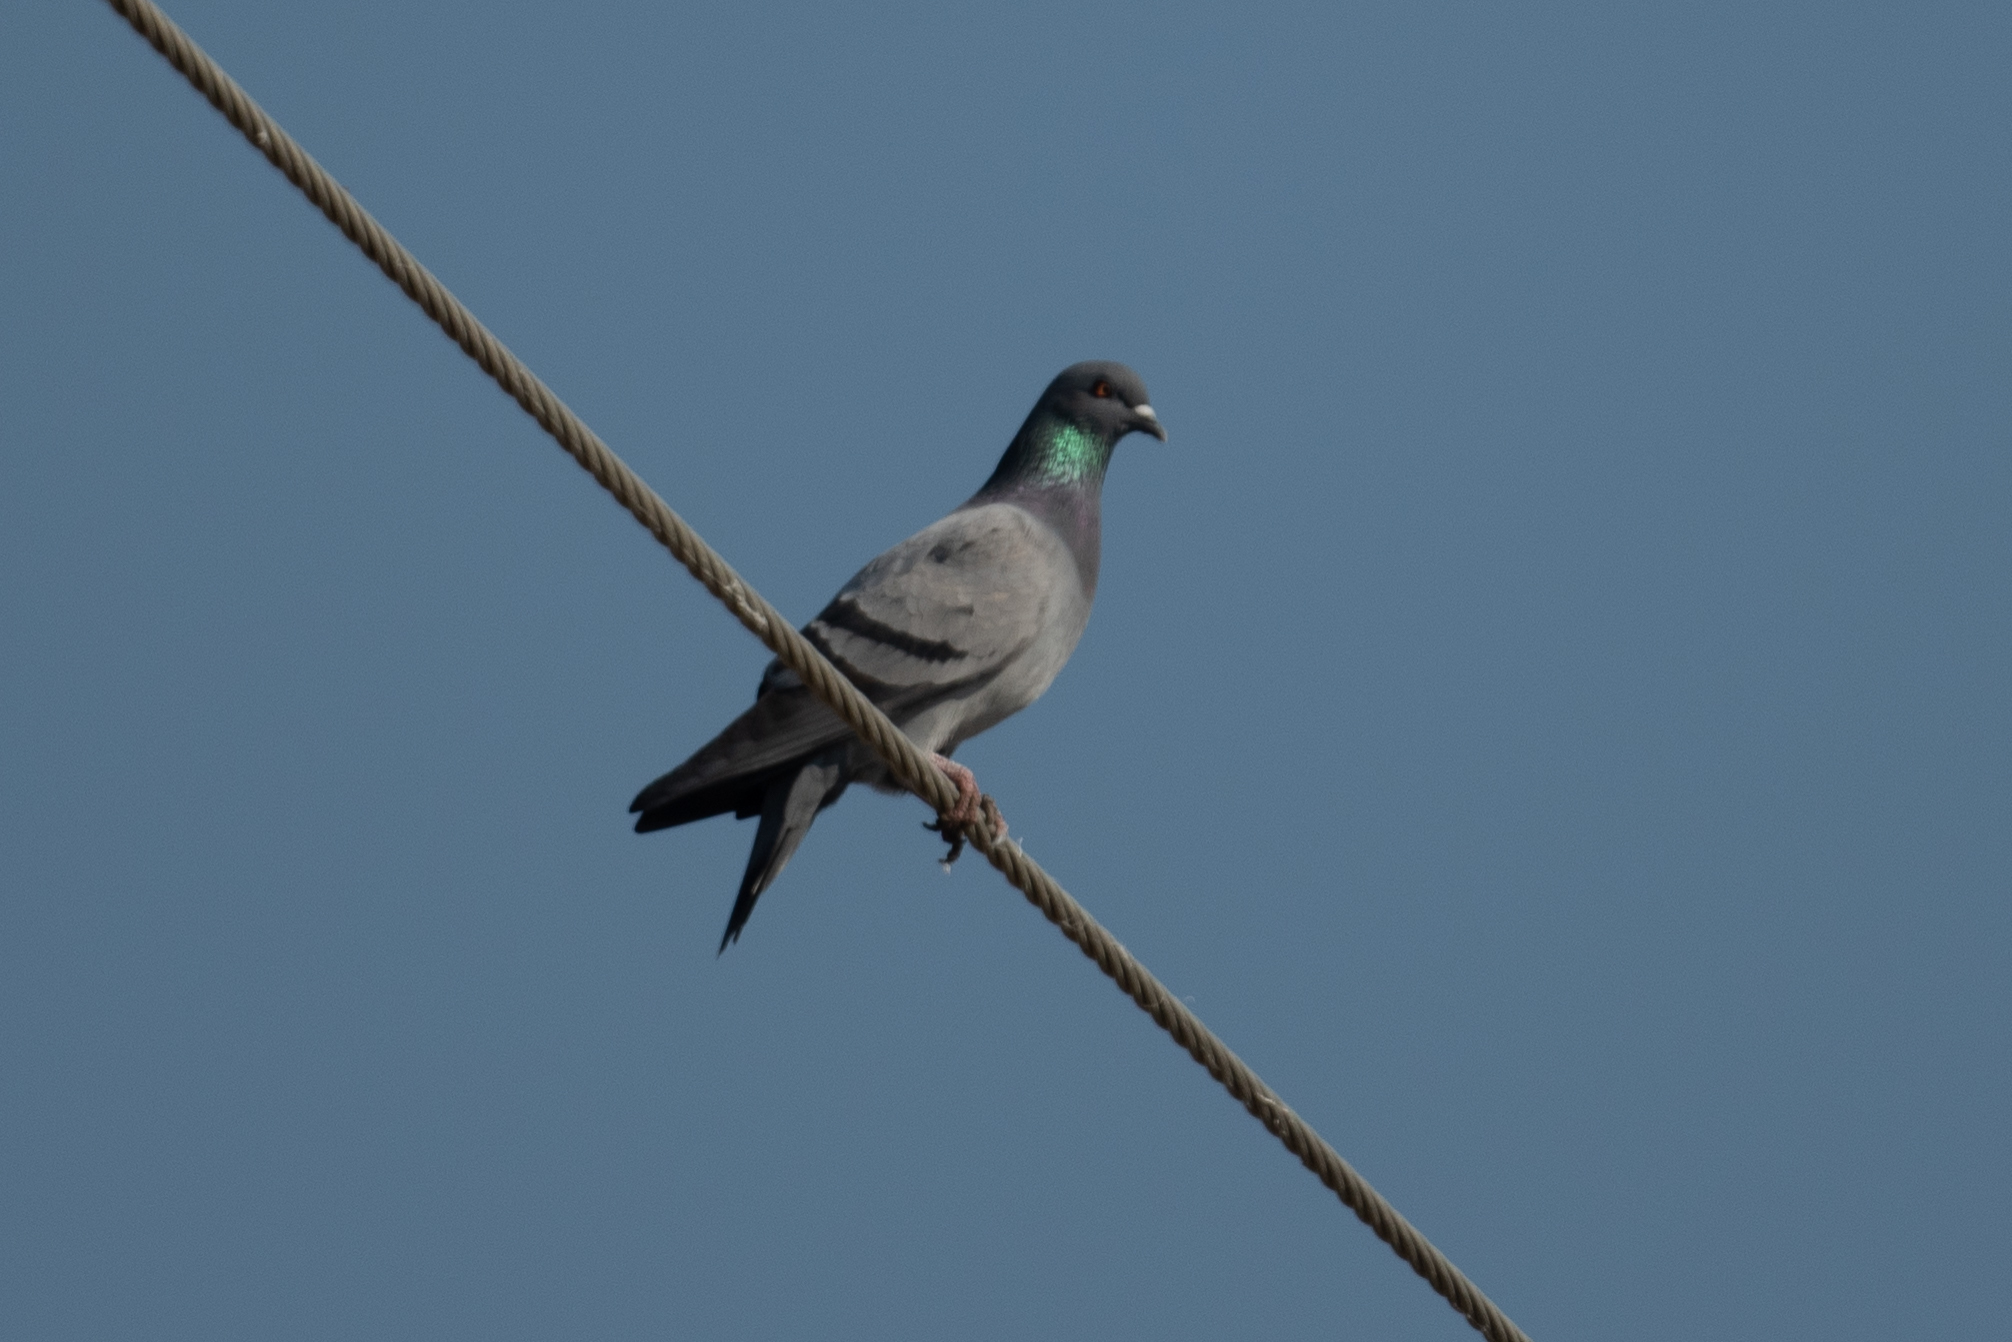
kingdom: Animalia
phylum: Chordata
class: Aves
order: Columbiformes
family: Columbidae
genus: Columba
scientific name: Columba livia
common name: Rock pigeon
